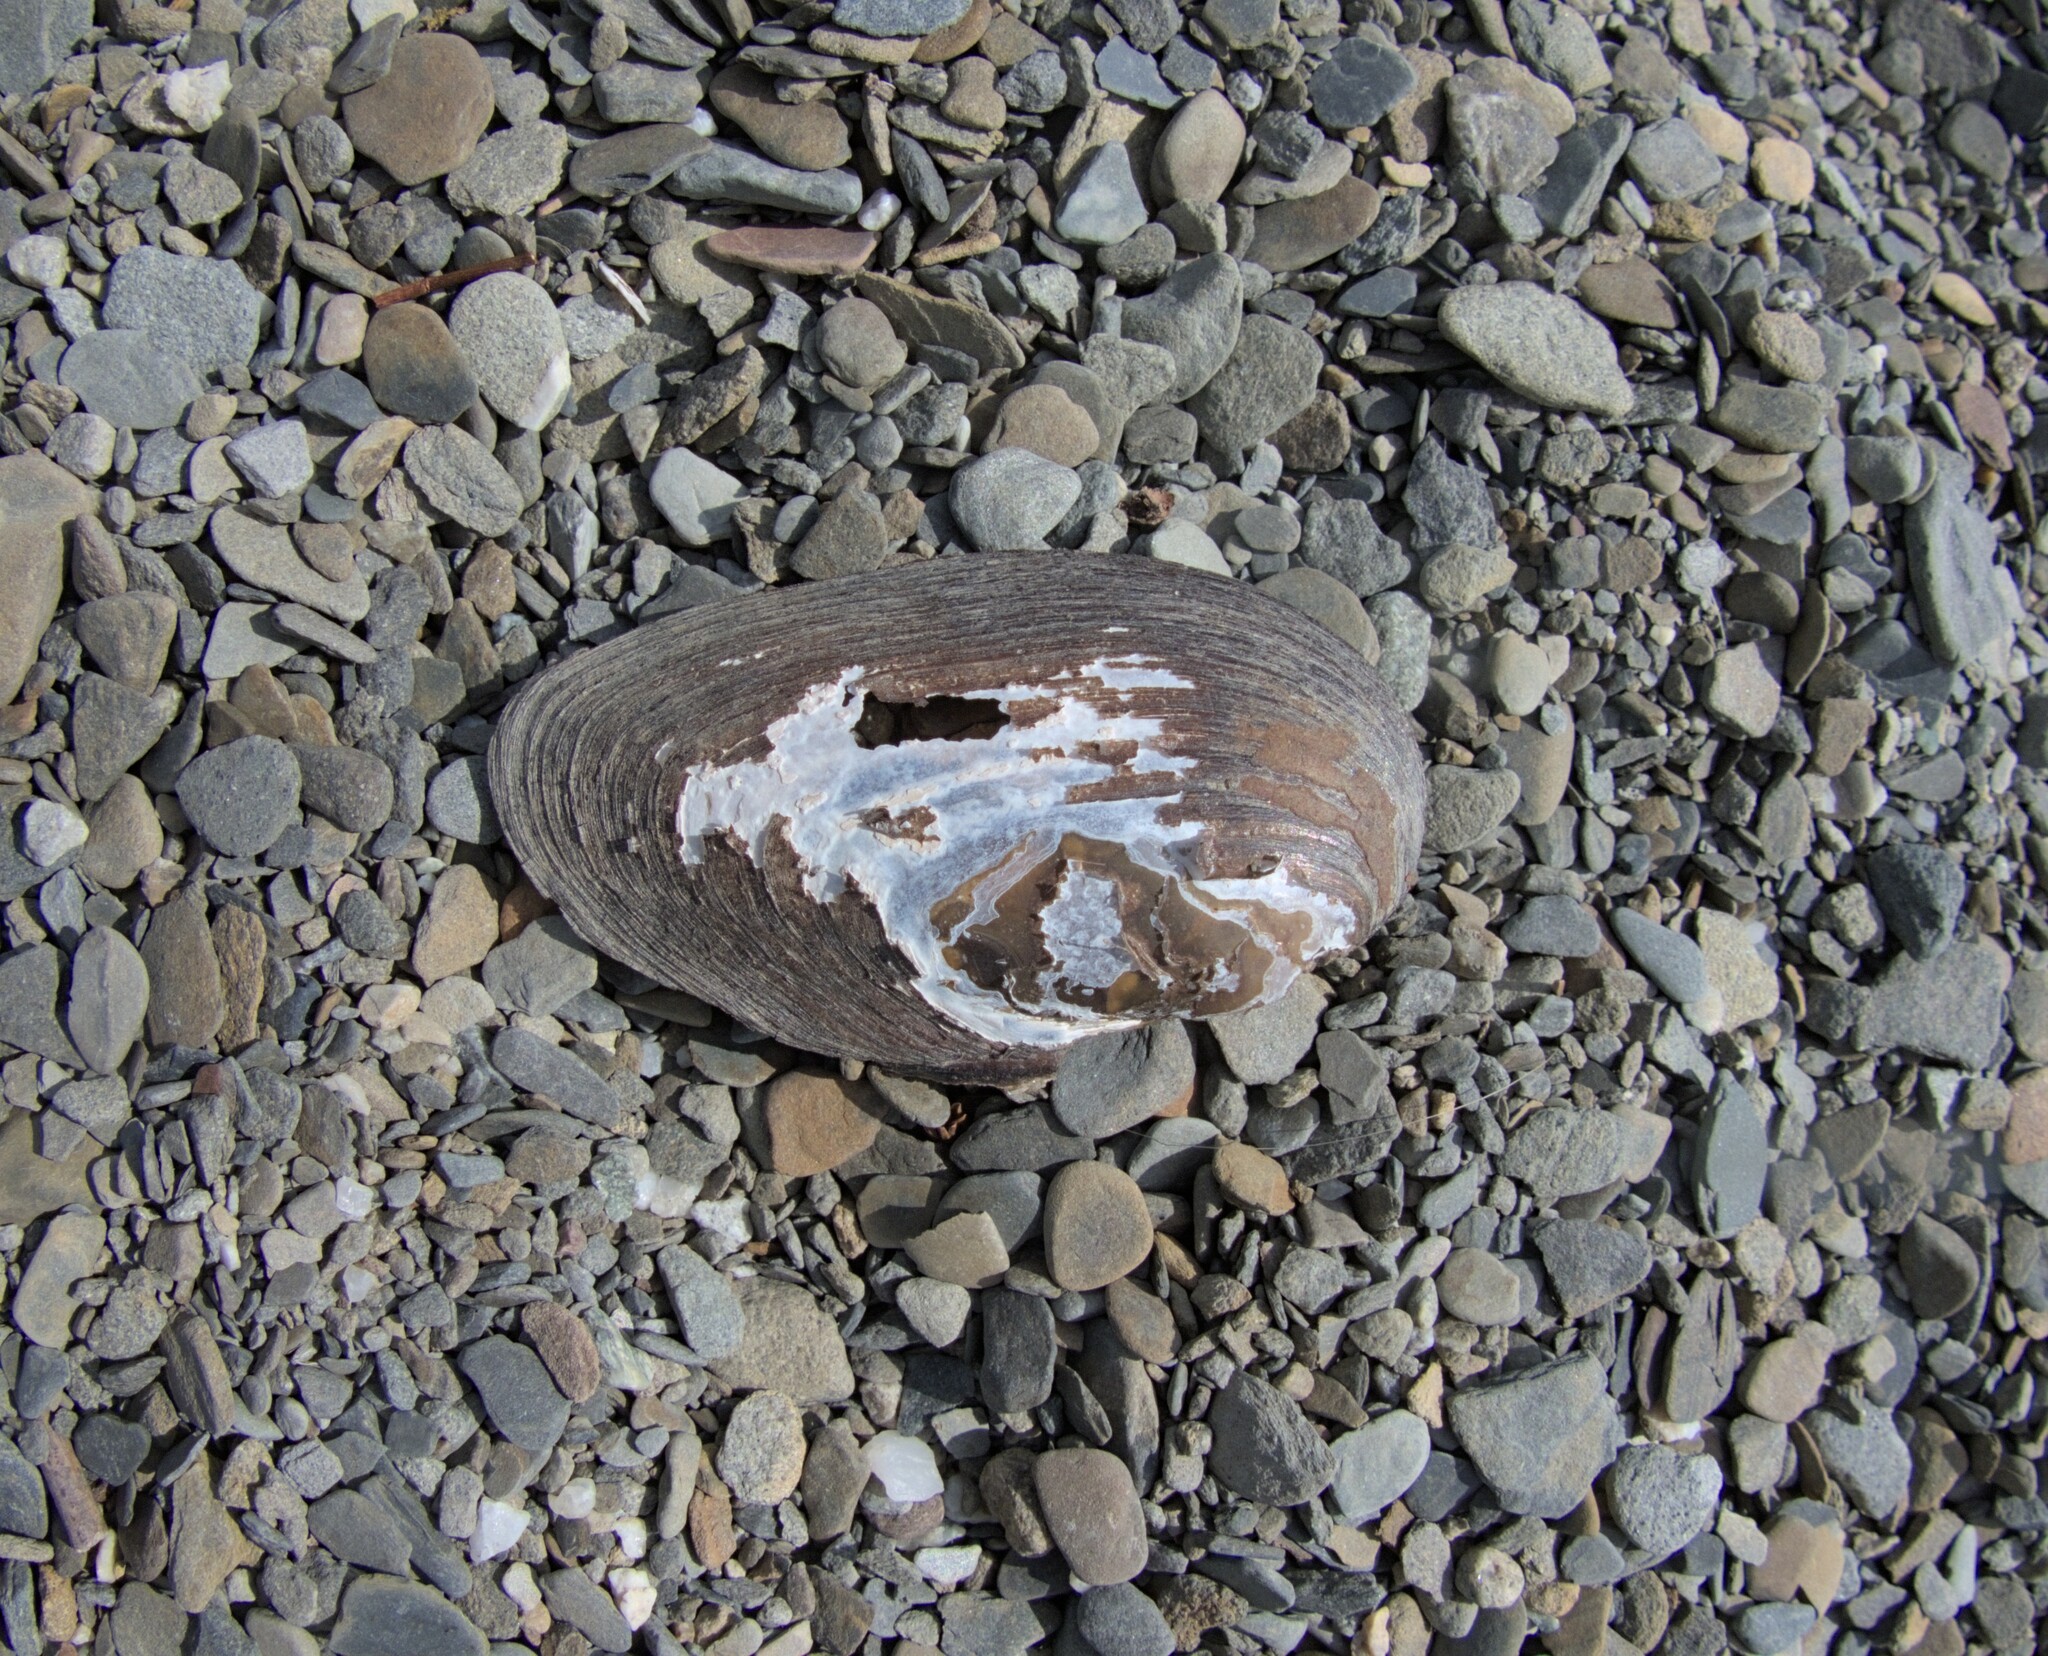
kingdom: Animalia
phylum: Mollusca
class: Bivalvia
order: Unionida
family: Unionidae
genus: Elliptio
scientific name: Elliptio complanata
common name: Eastern elliptio
